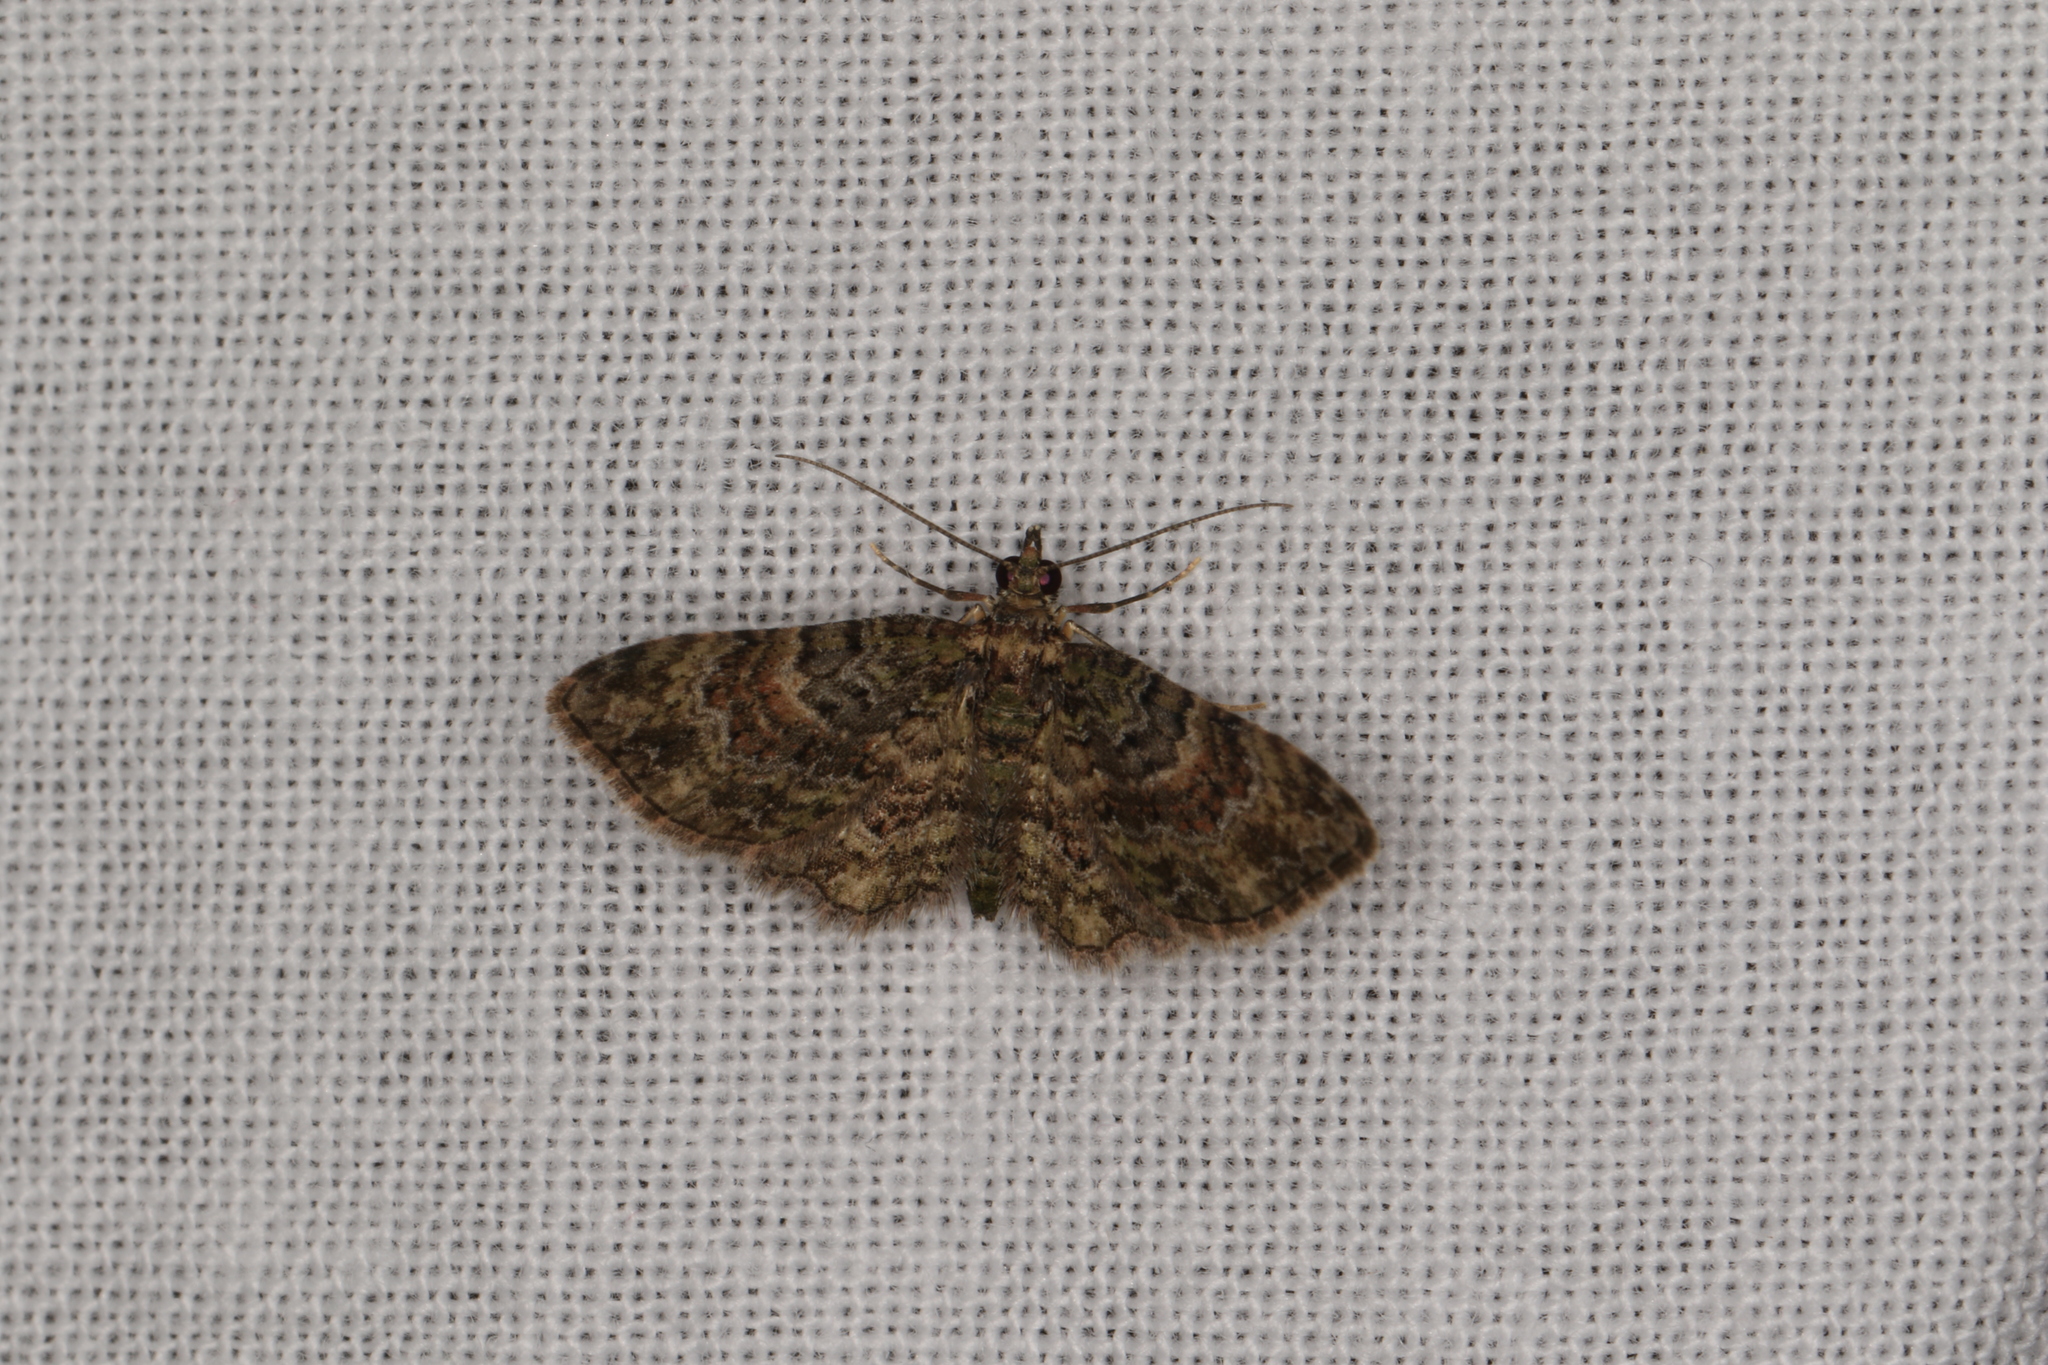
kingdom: Animalia
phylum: Arthropoda
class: Insecta
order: Lepidoptera
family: Geometridae
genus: Chloroclystis
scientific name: Chloroclystis catastreptes
